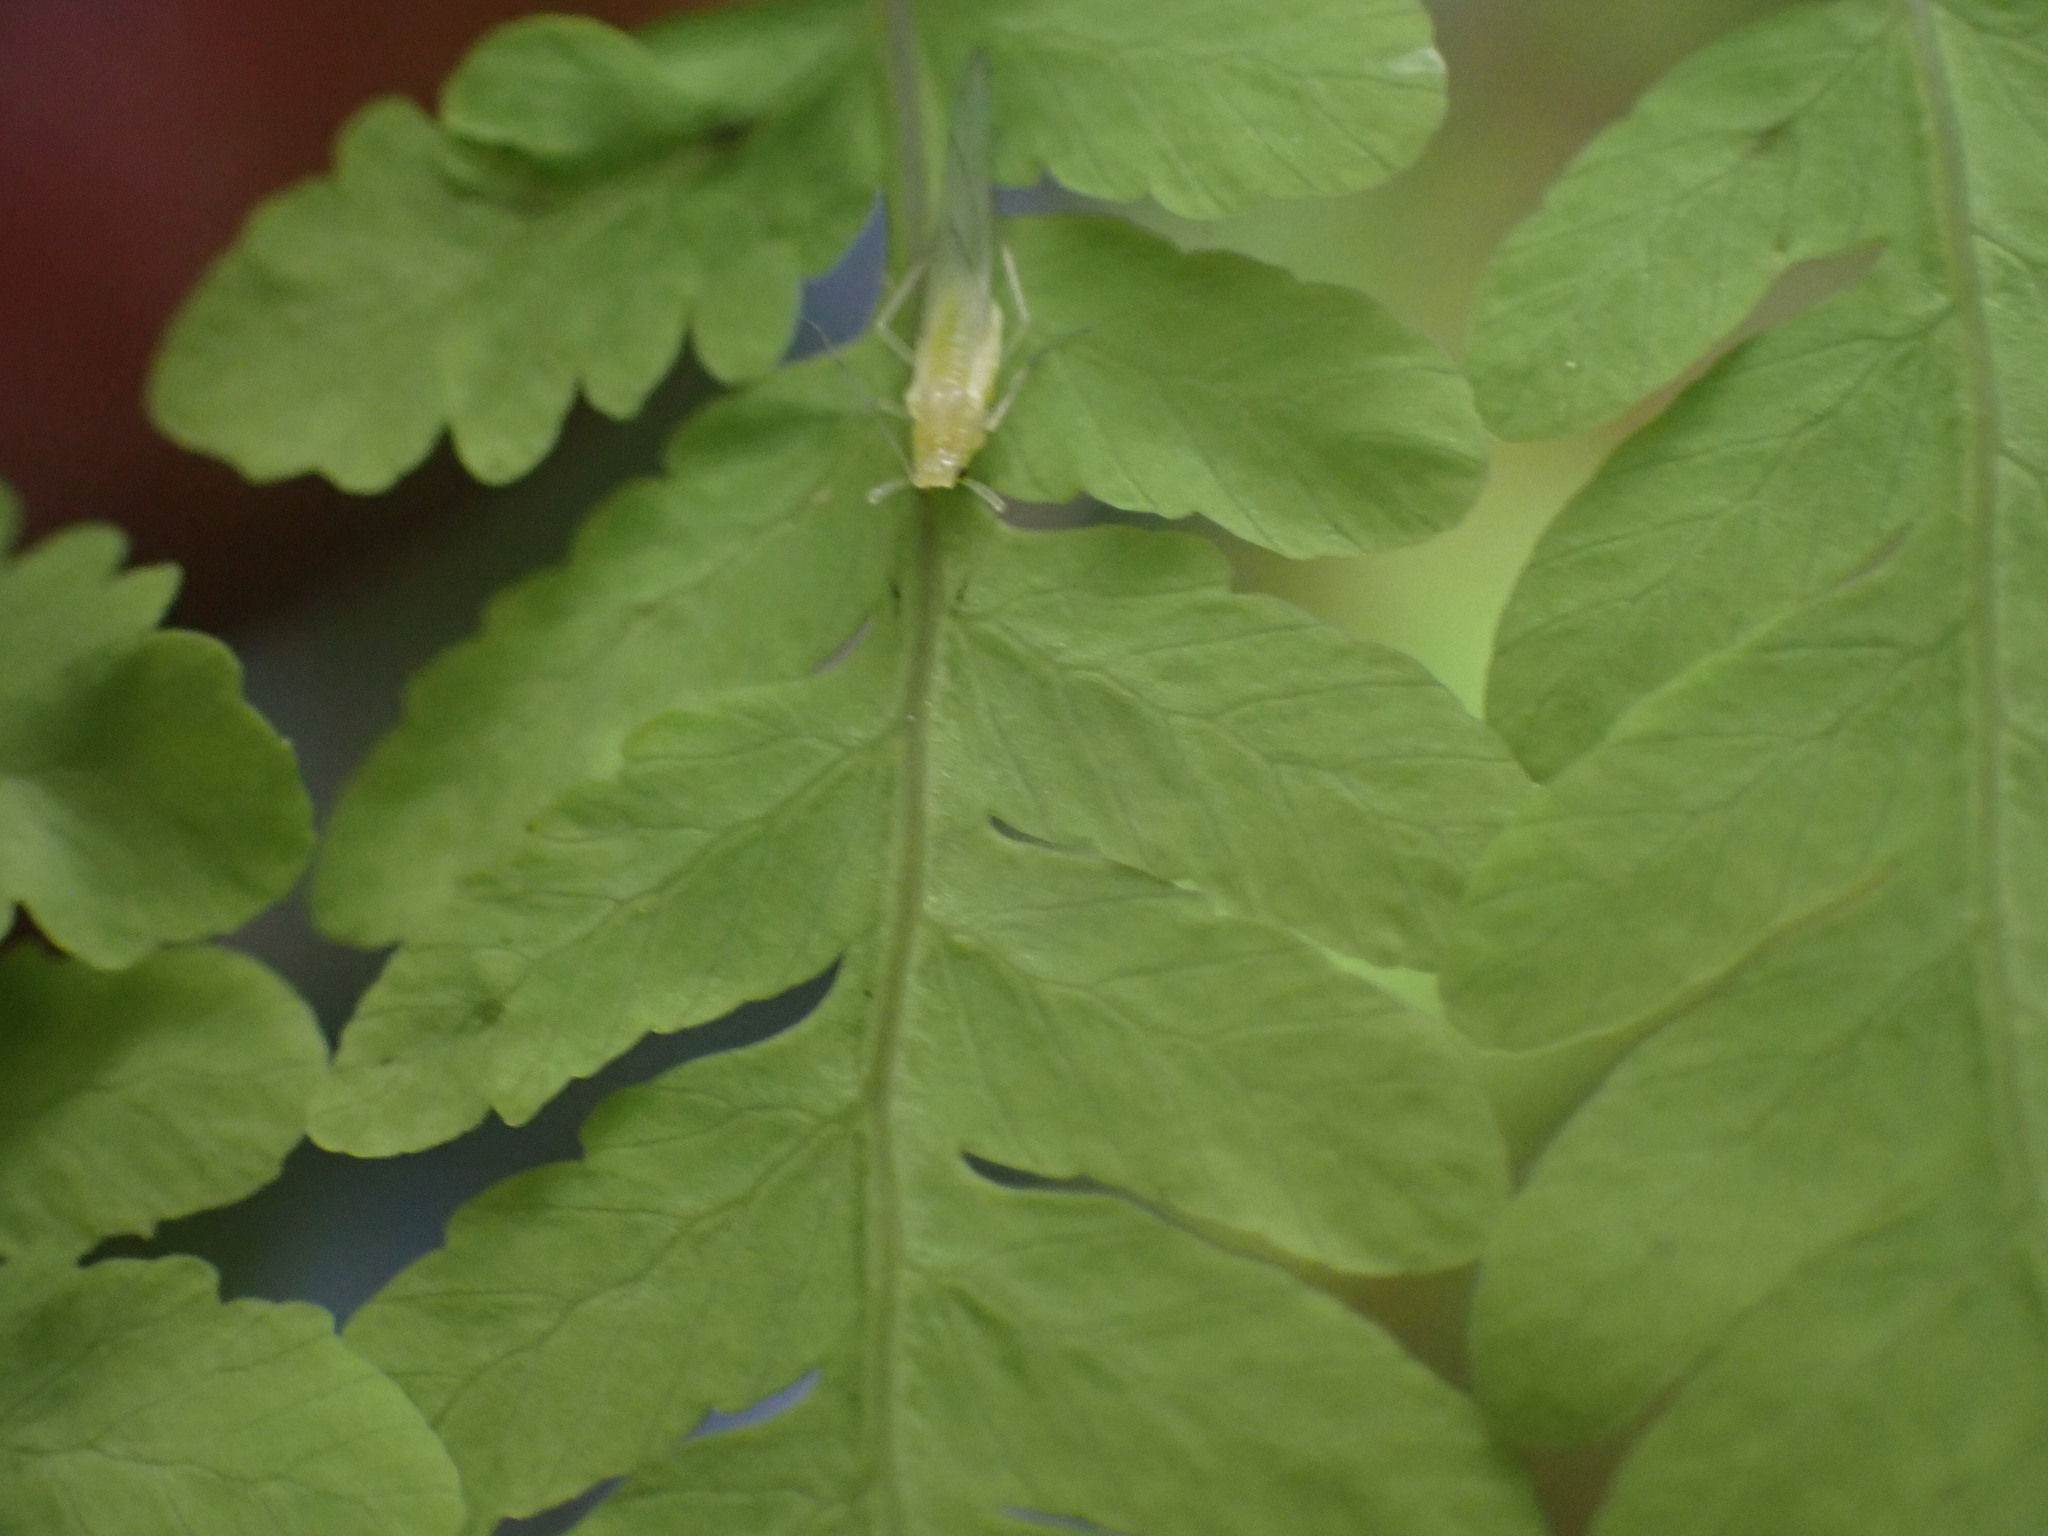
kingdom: Plantae
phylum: Tracheophyta
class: Polypodiopsida
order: Polypodiales
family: Cystopteridaceae
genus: Gymnocarpium
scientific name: Gymnocarpium disjunctum
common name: Western oak fern
